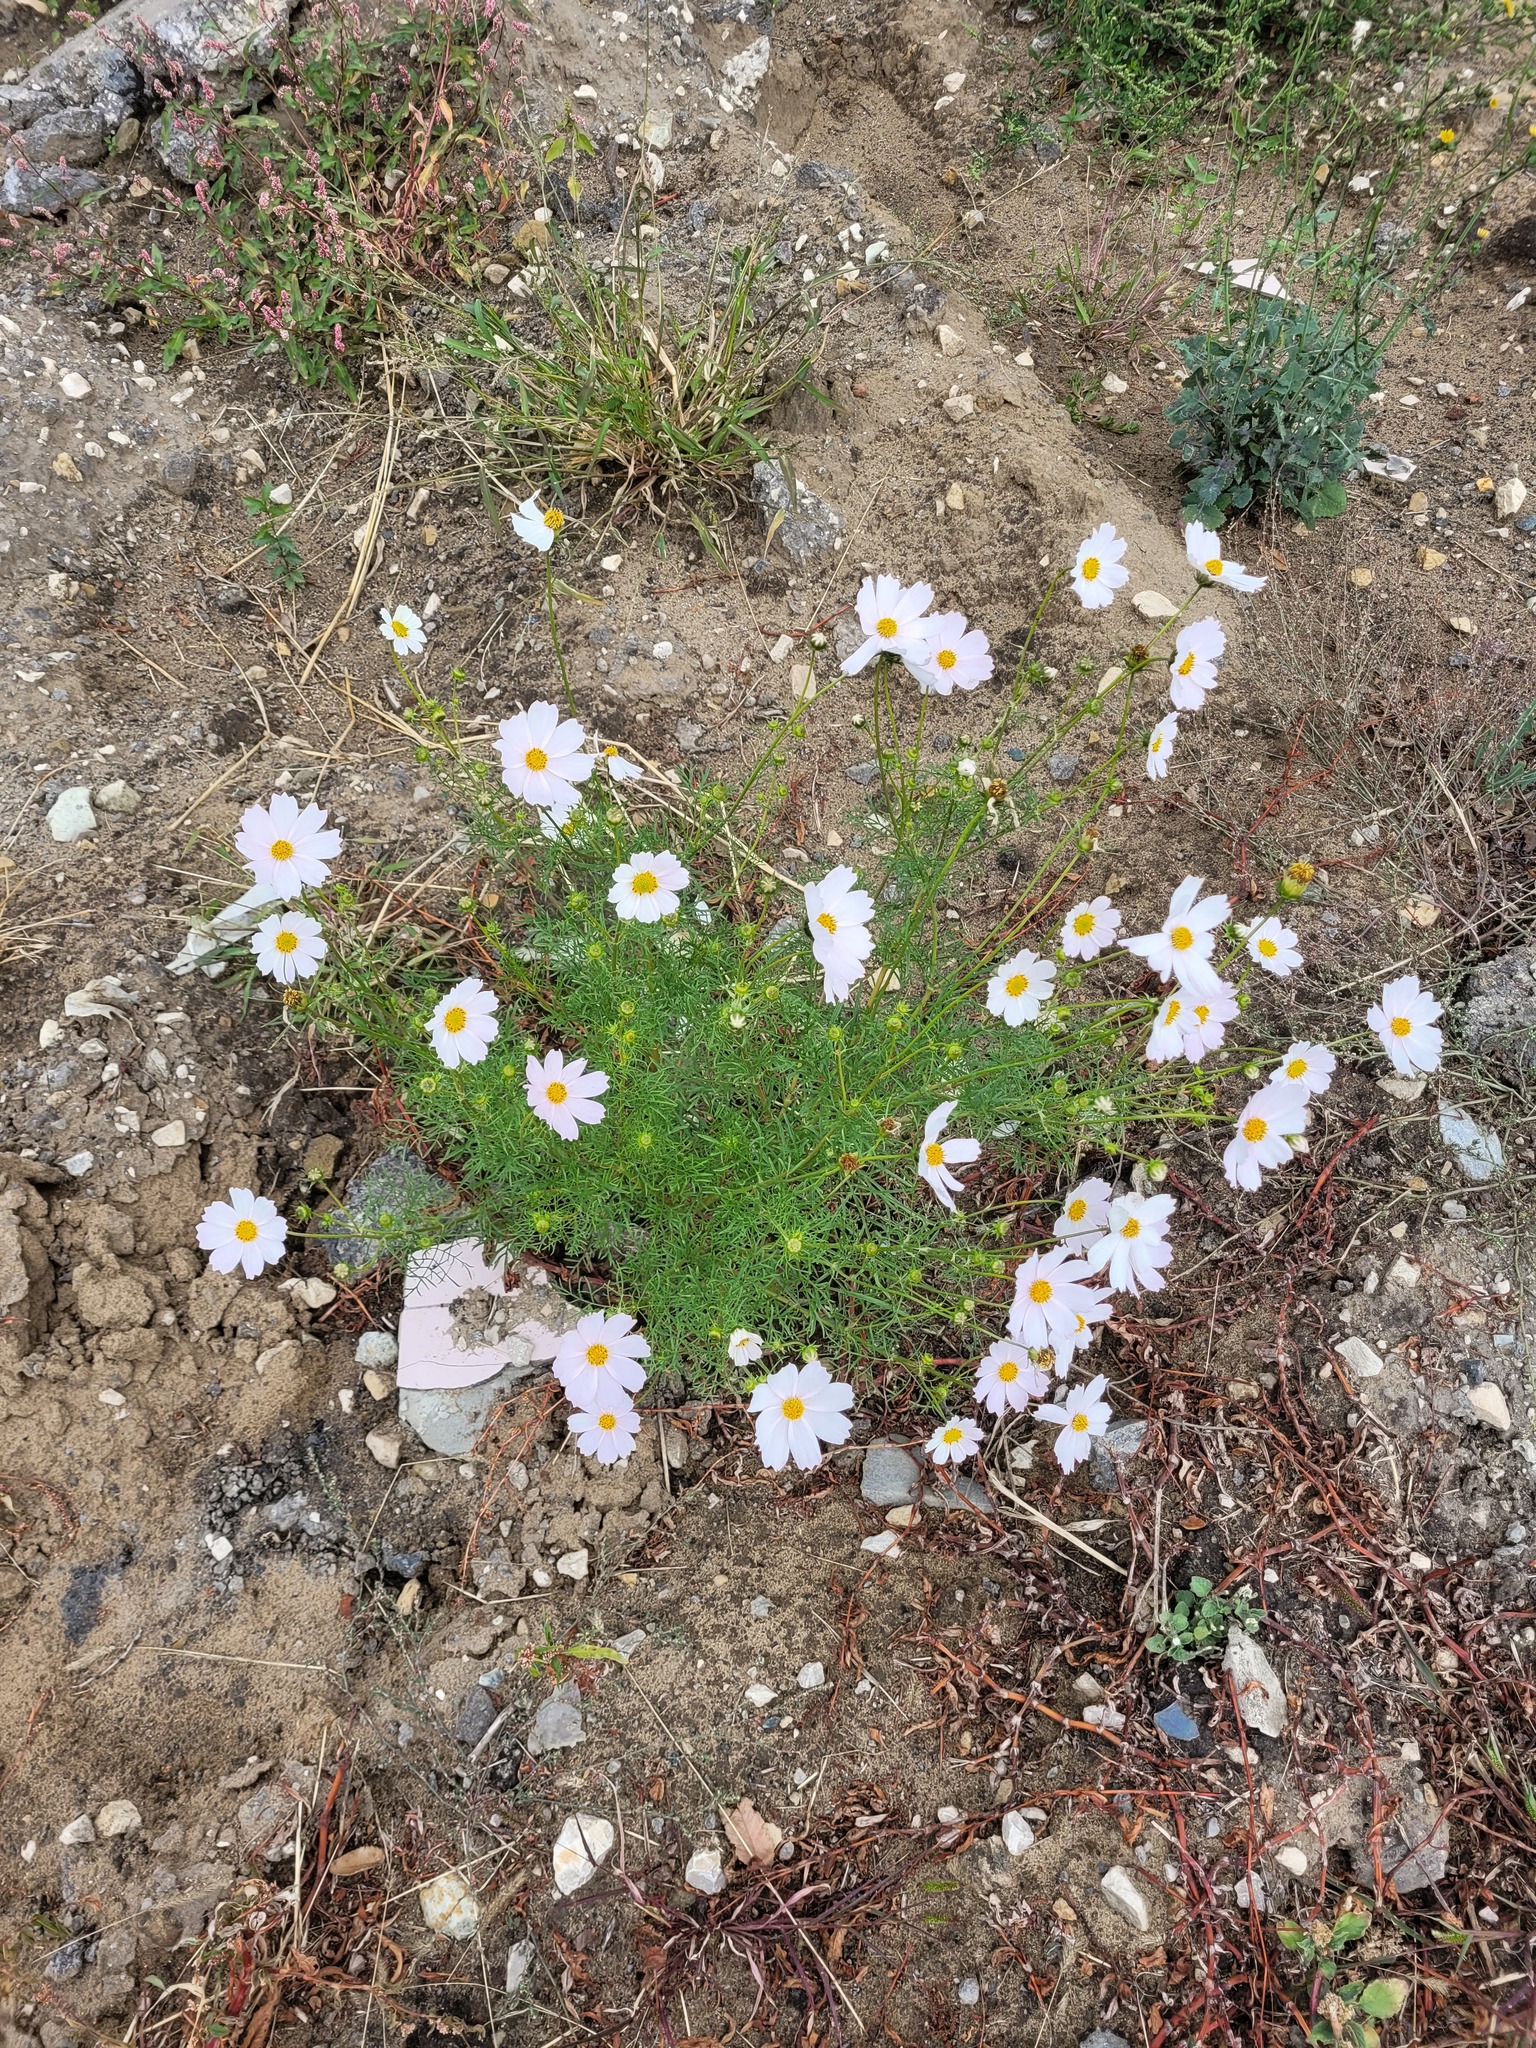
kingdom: Plantae
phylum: Tracheophyta
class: Magnoliopsida
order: Asterales
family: Asteraceae
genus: Cosmos
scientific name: Cosmos bipinnatus
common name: Garden cosmos
